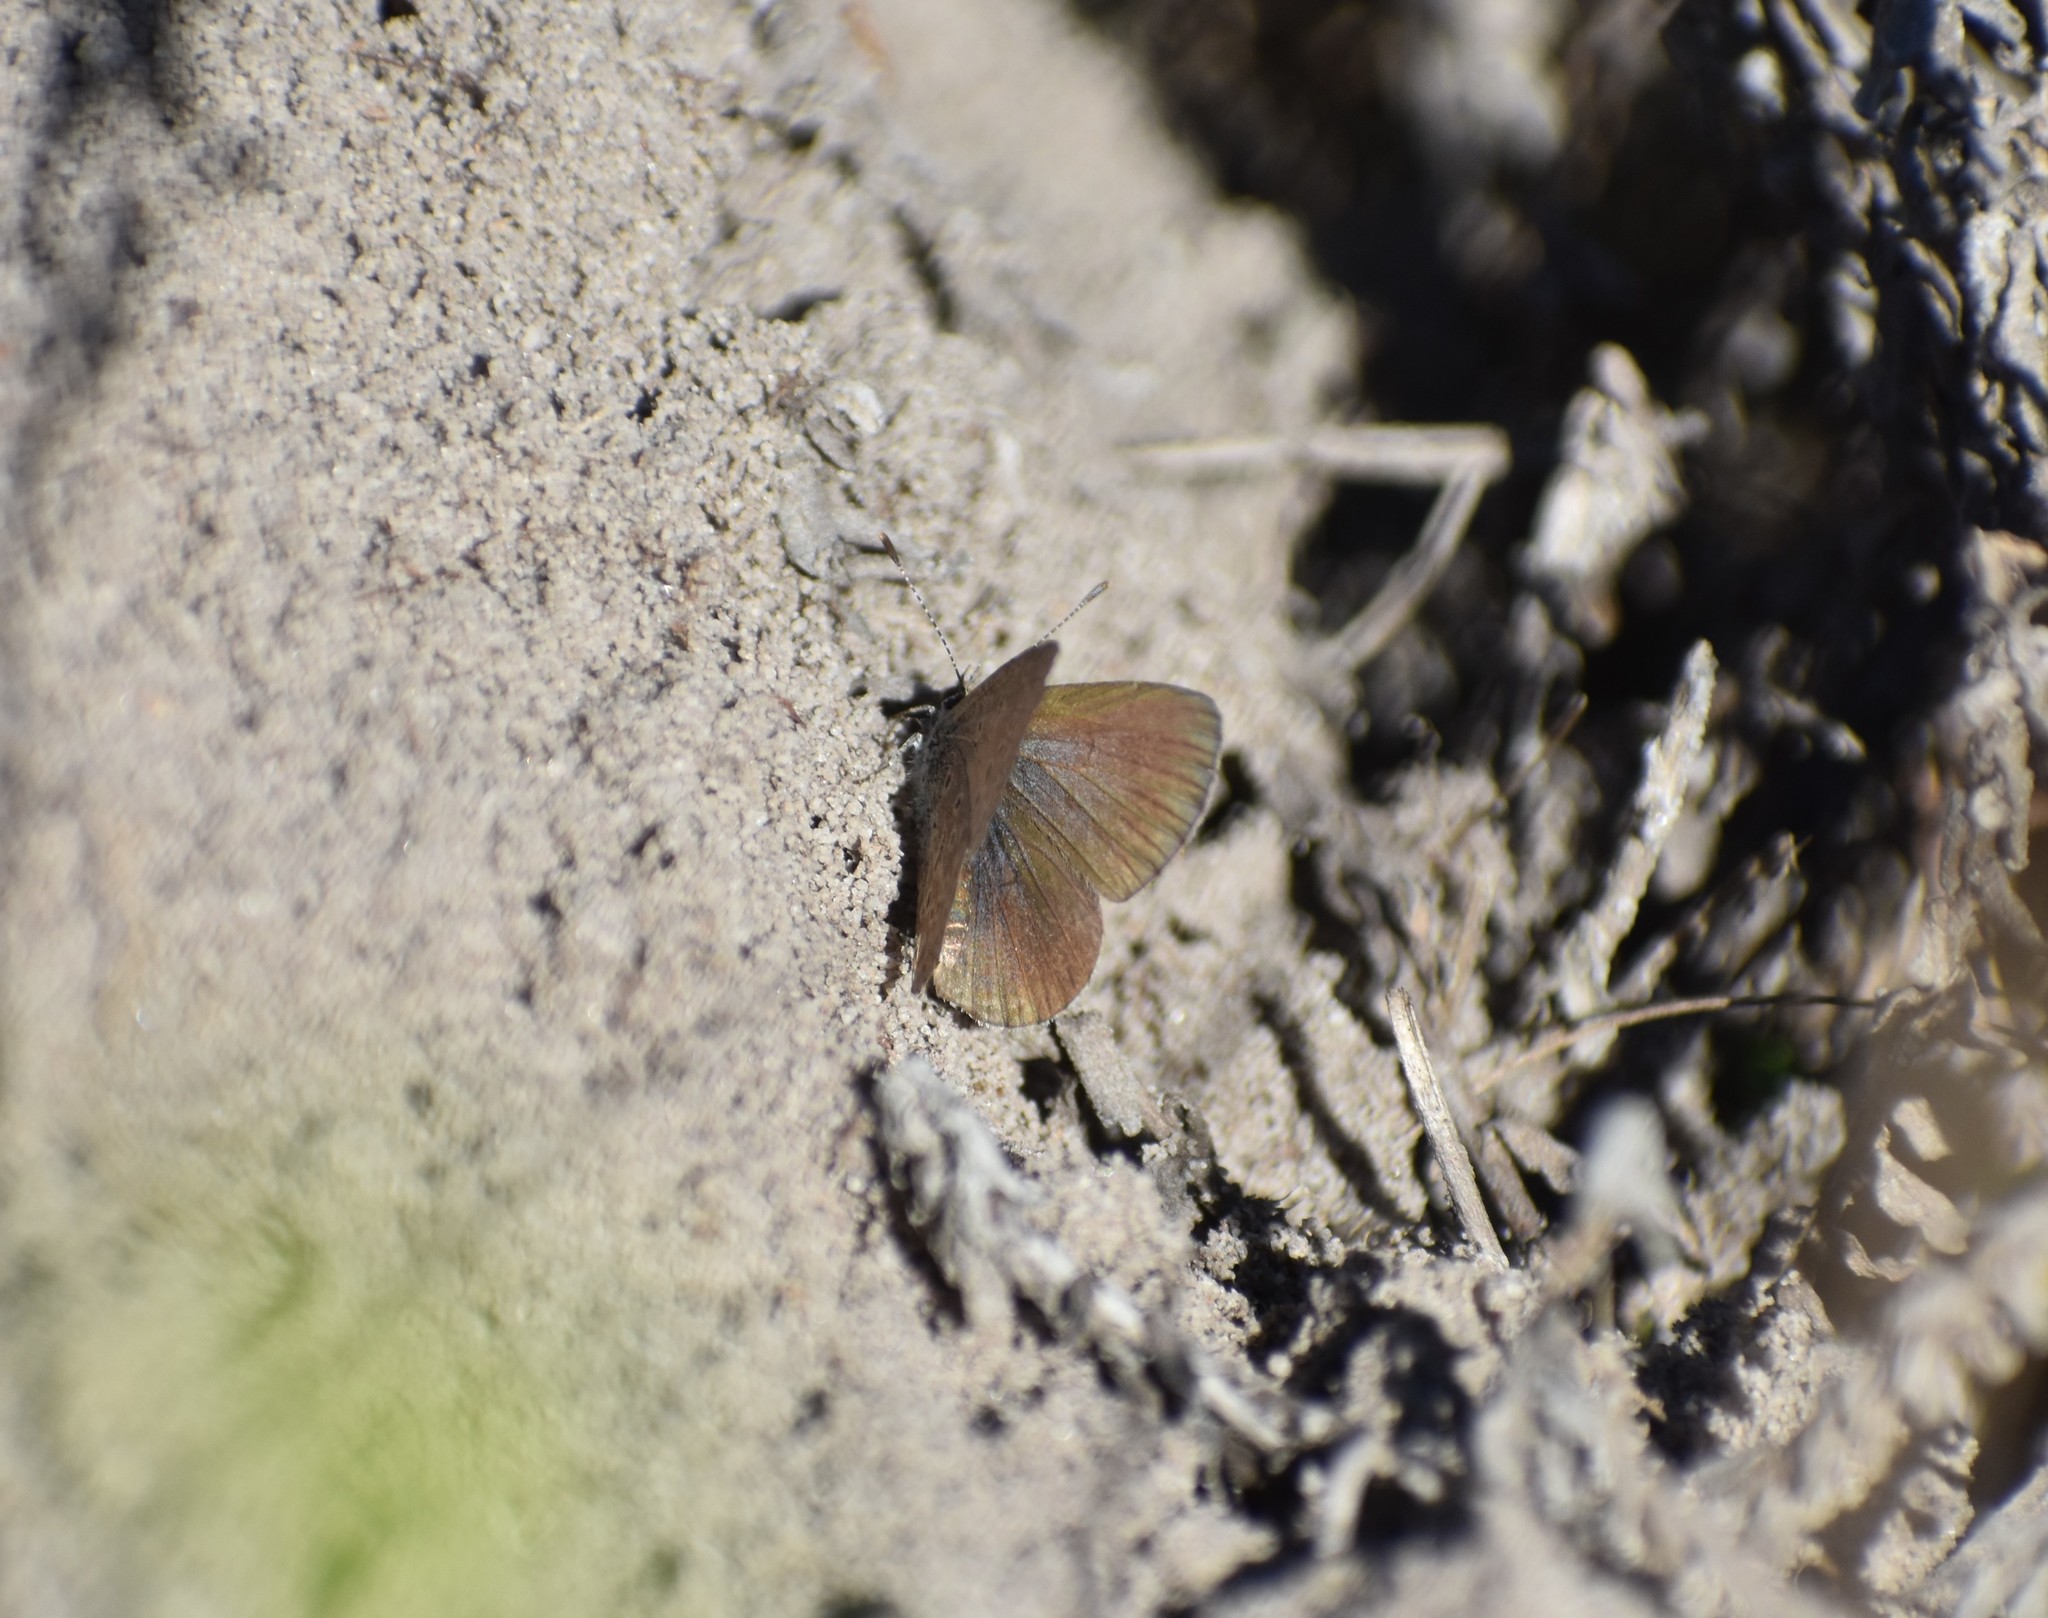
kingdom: Animalia
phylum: Arthropoda
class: Insecta
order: Lepidoptera
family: Lycaenidae
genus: Zizeeria
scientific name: Zizeeria knysna
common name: African grass blue
